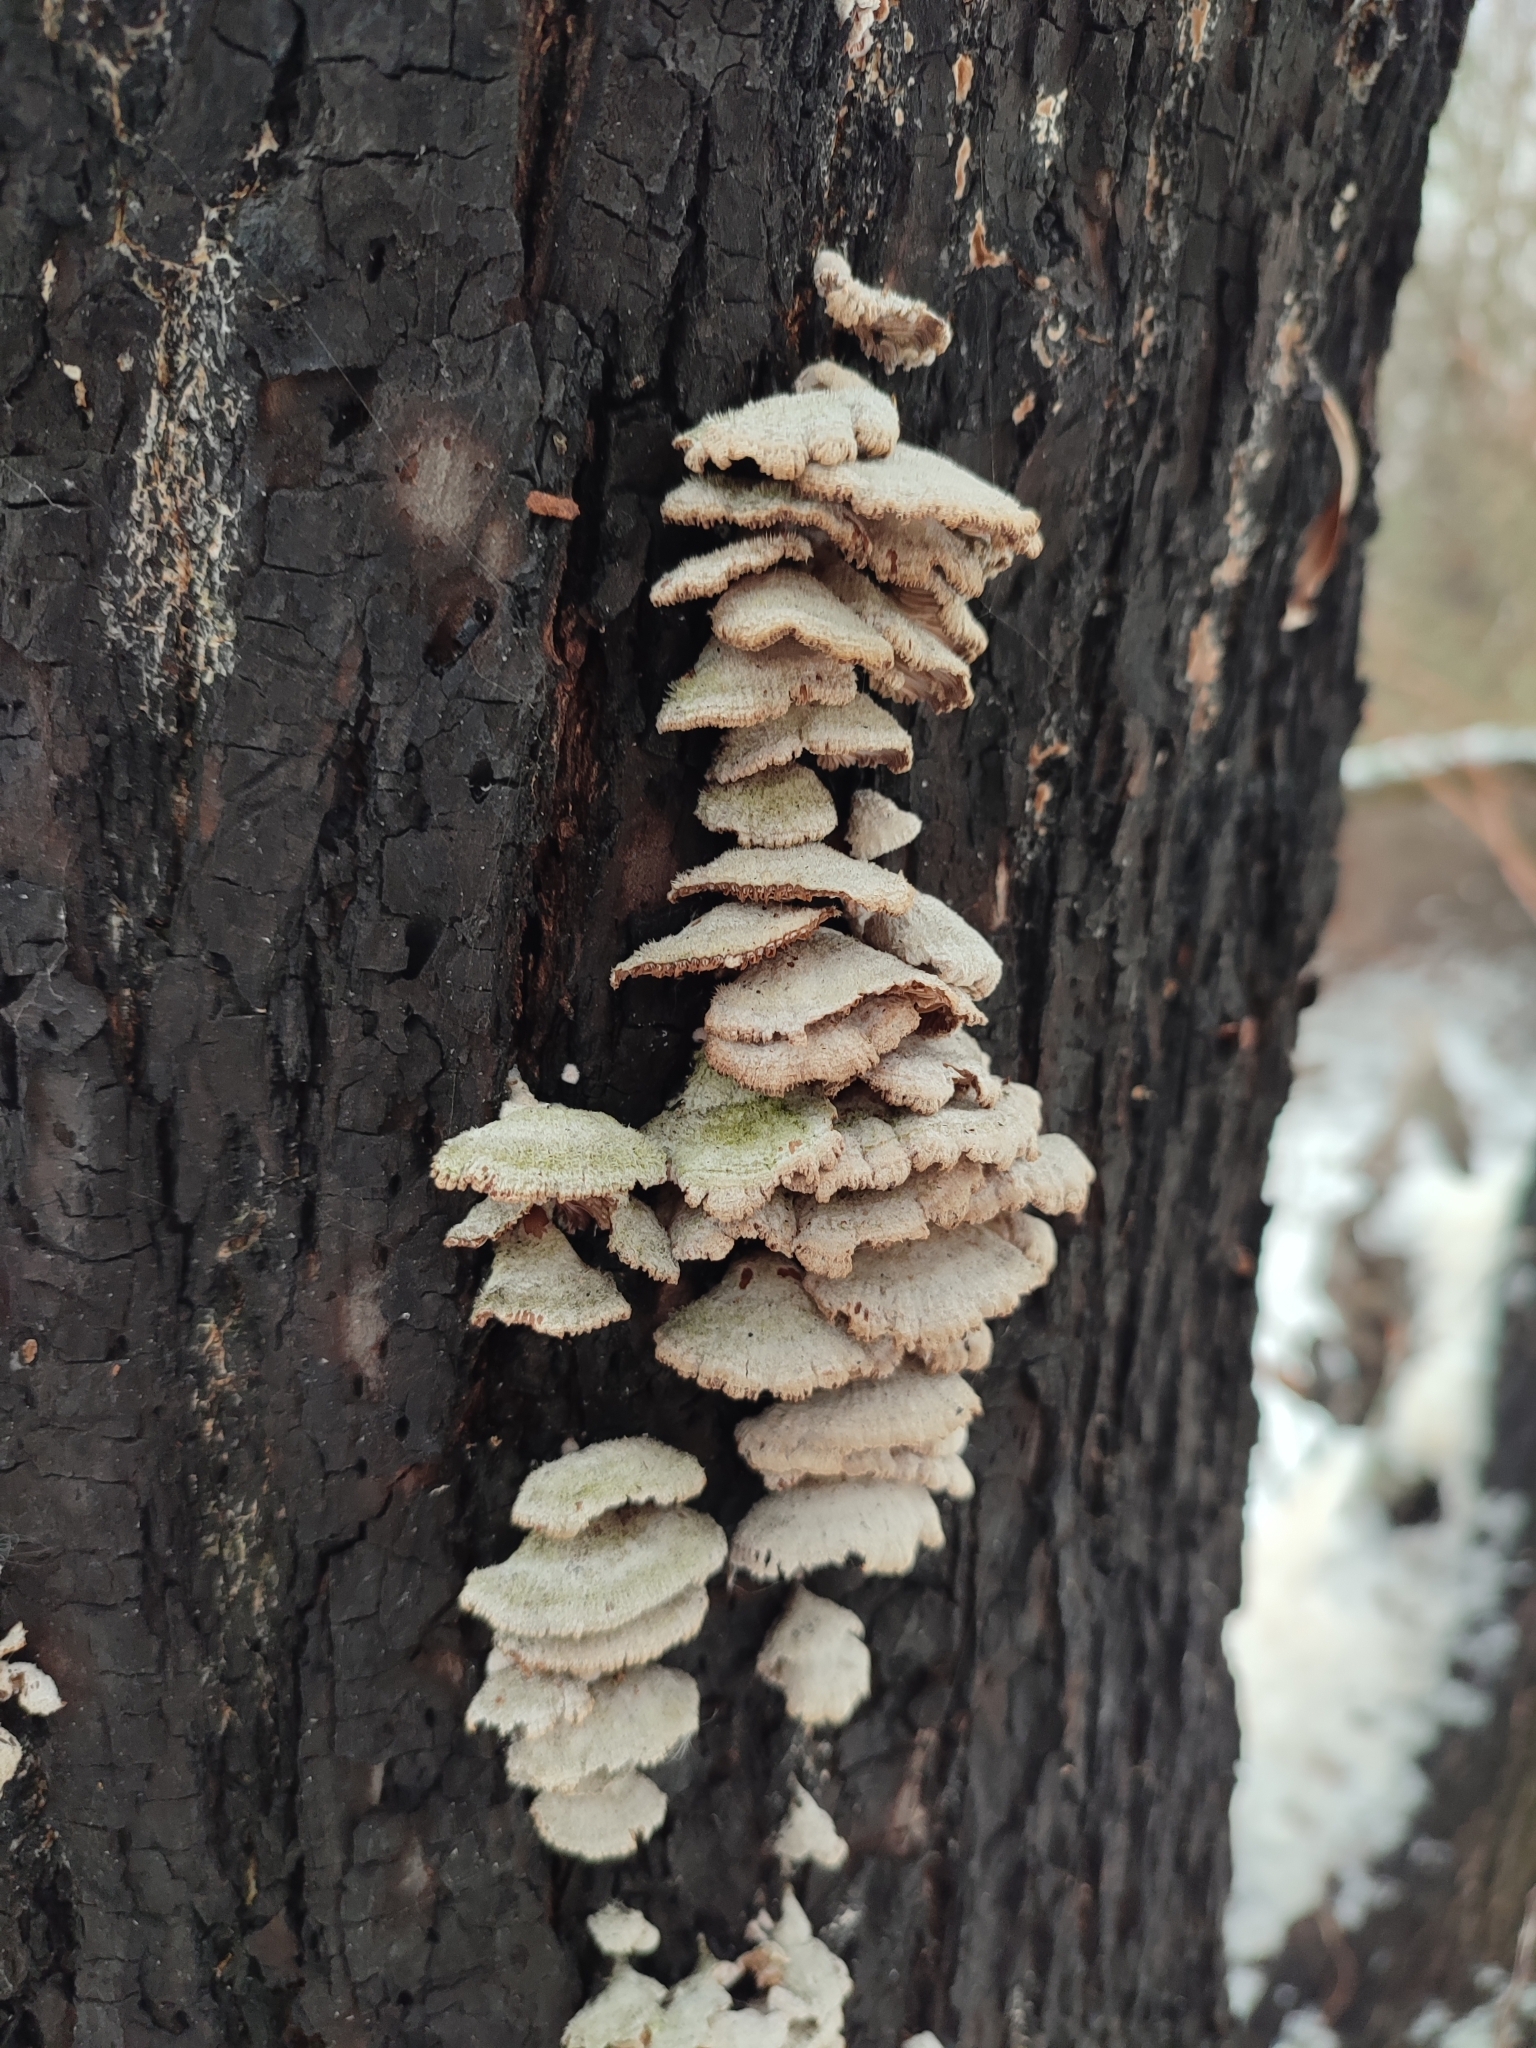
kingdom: Fungi
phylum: Basidiomycota
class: Agaricomycetes
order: Agaricales
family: Schizophyllaceae
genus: Schizophyllum
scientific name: Schizophyllum commune
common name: Common porecrust
